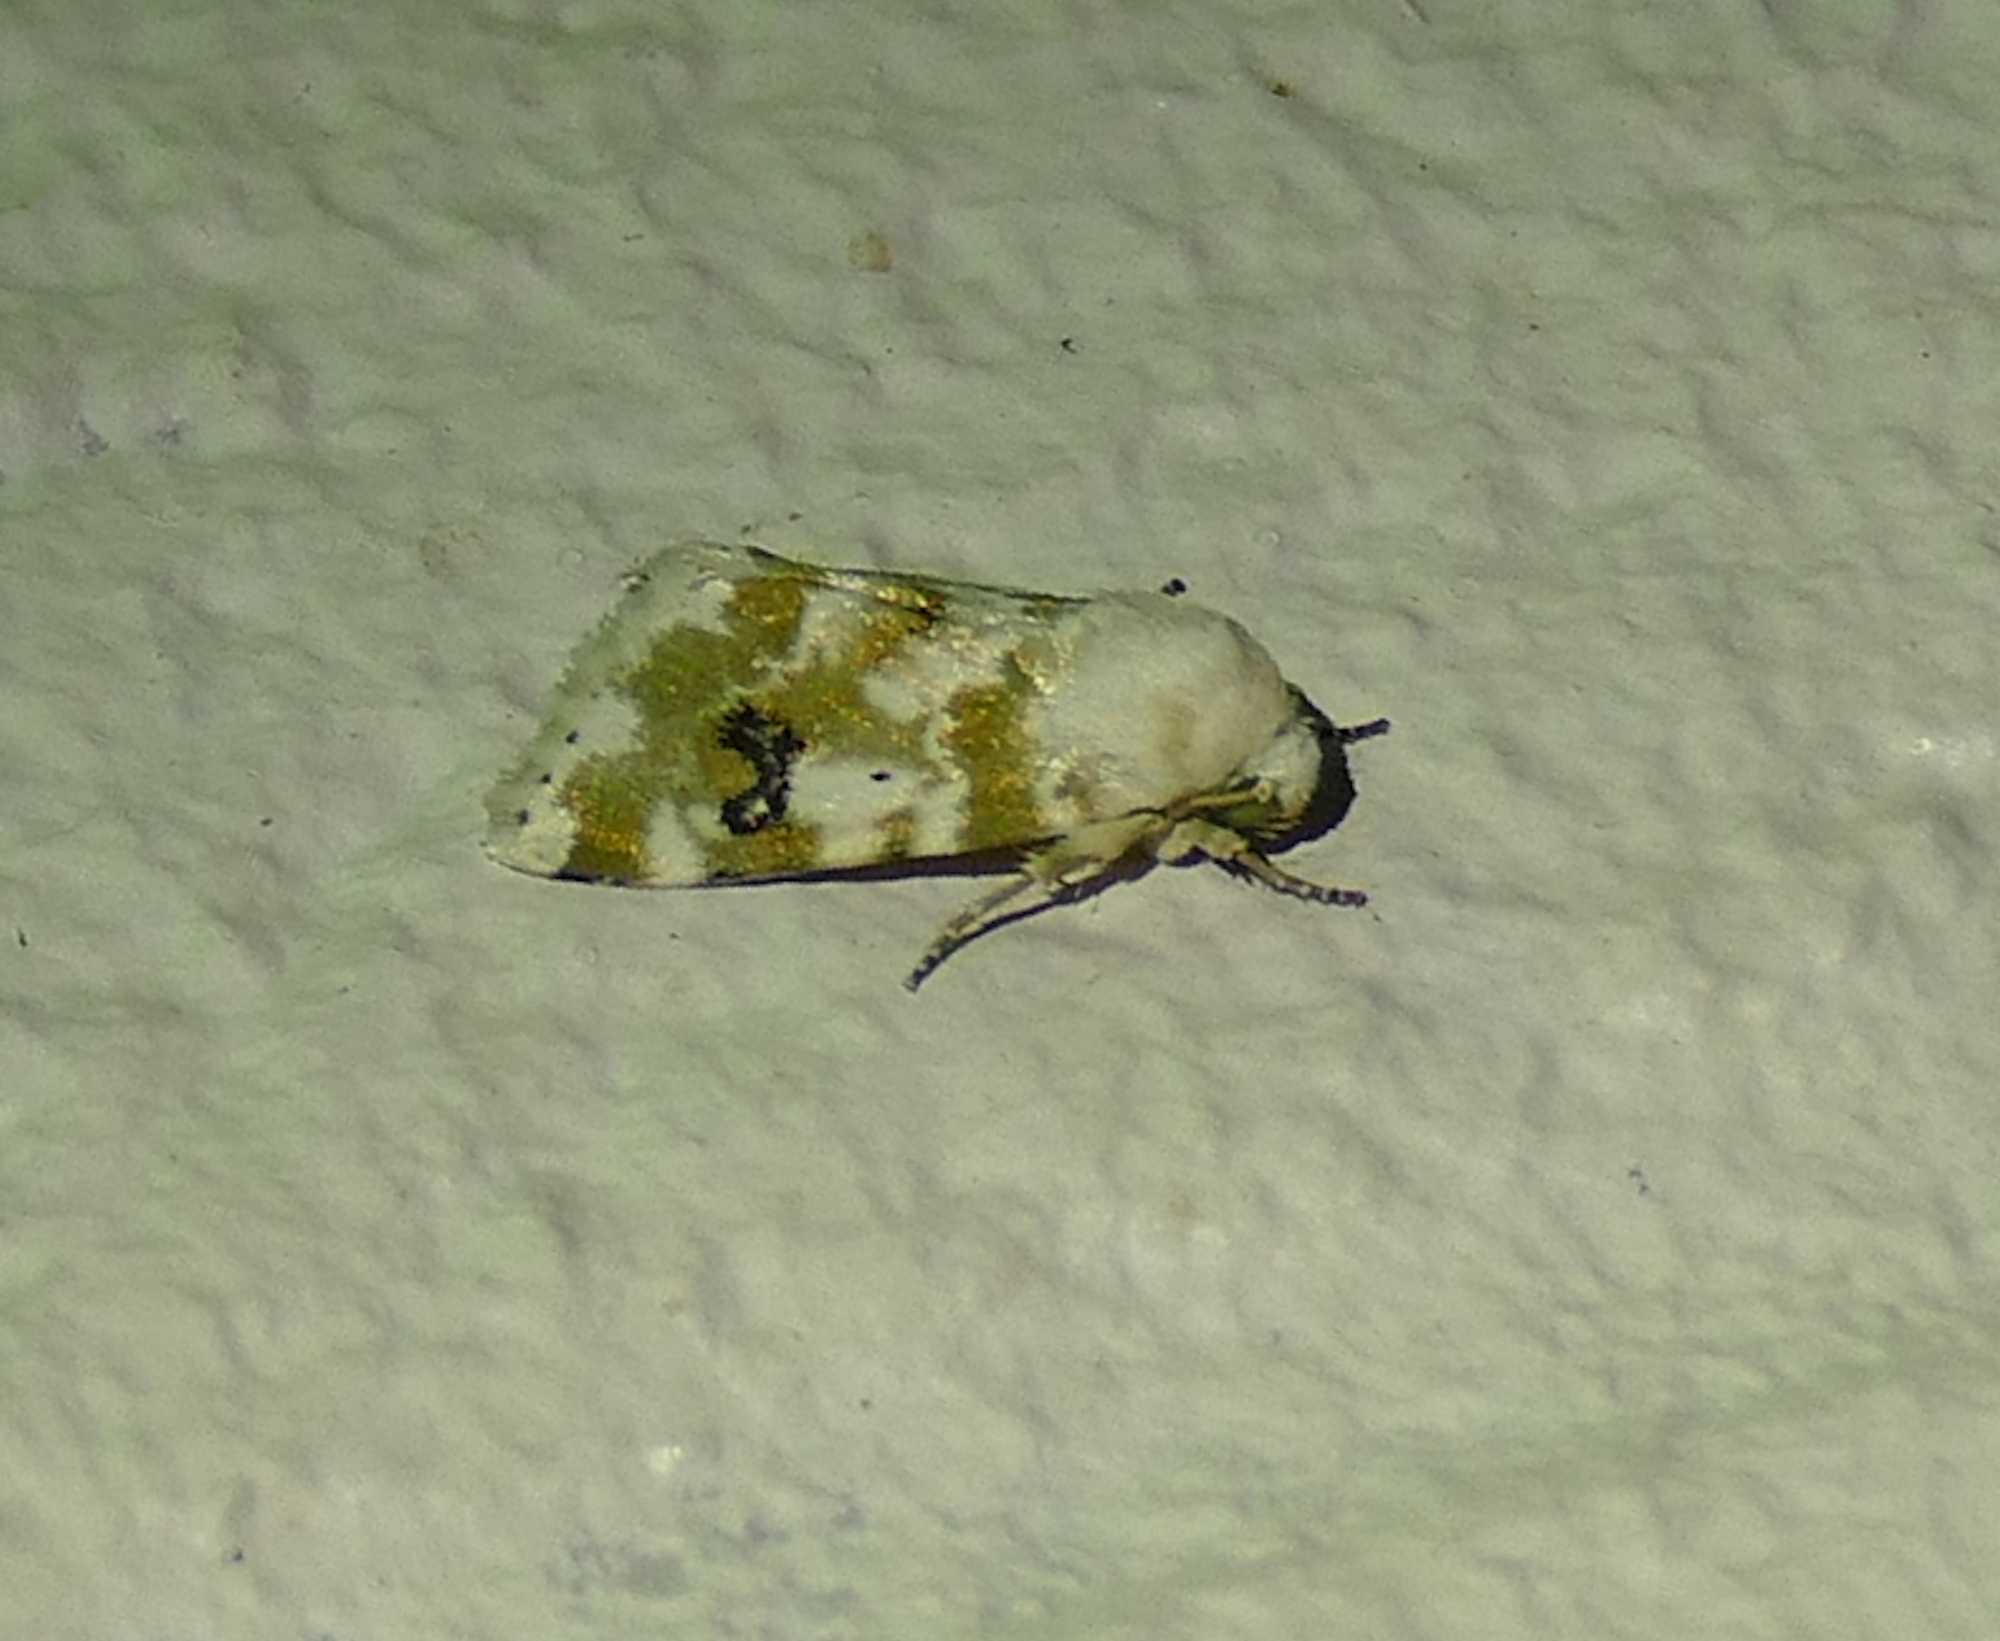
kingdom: Animalia
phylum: Arthropoda
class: Insecta
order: Lepidoptera
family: Noctuidae
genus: Schinia
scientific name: Schinia nundina
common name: Goldenrod flower moth
